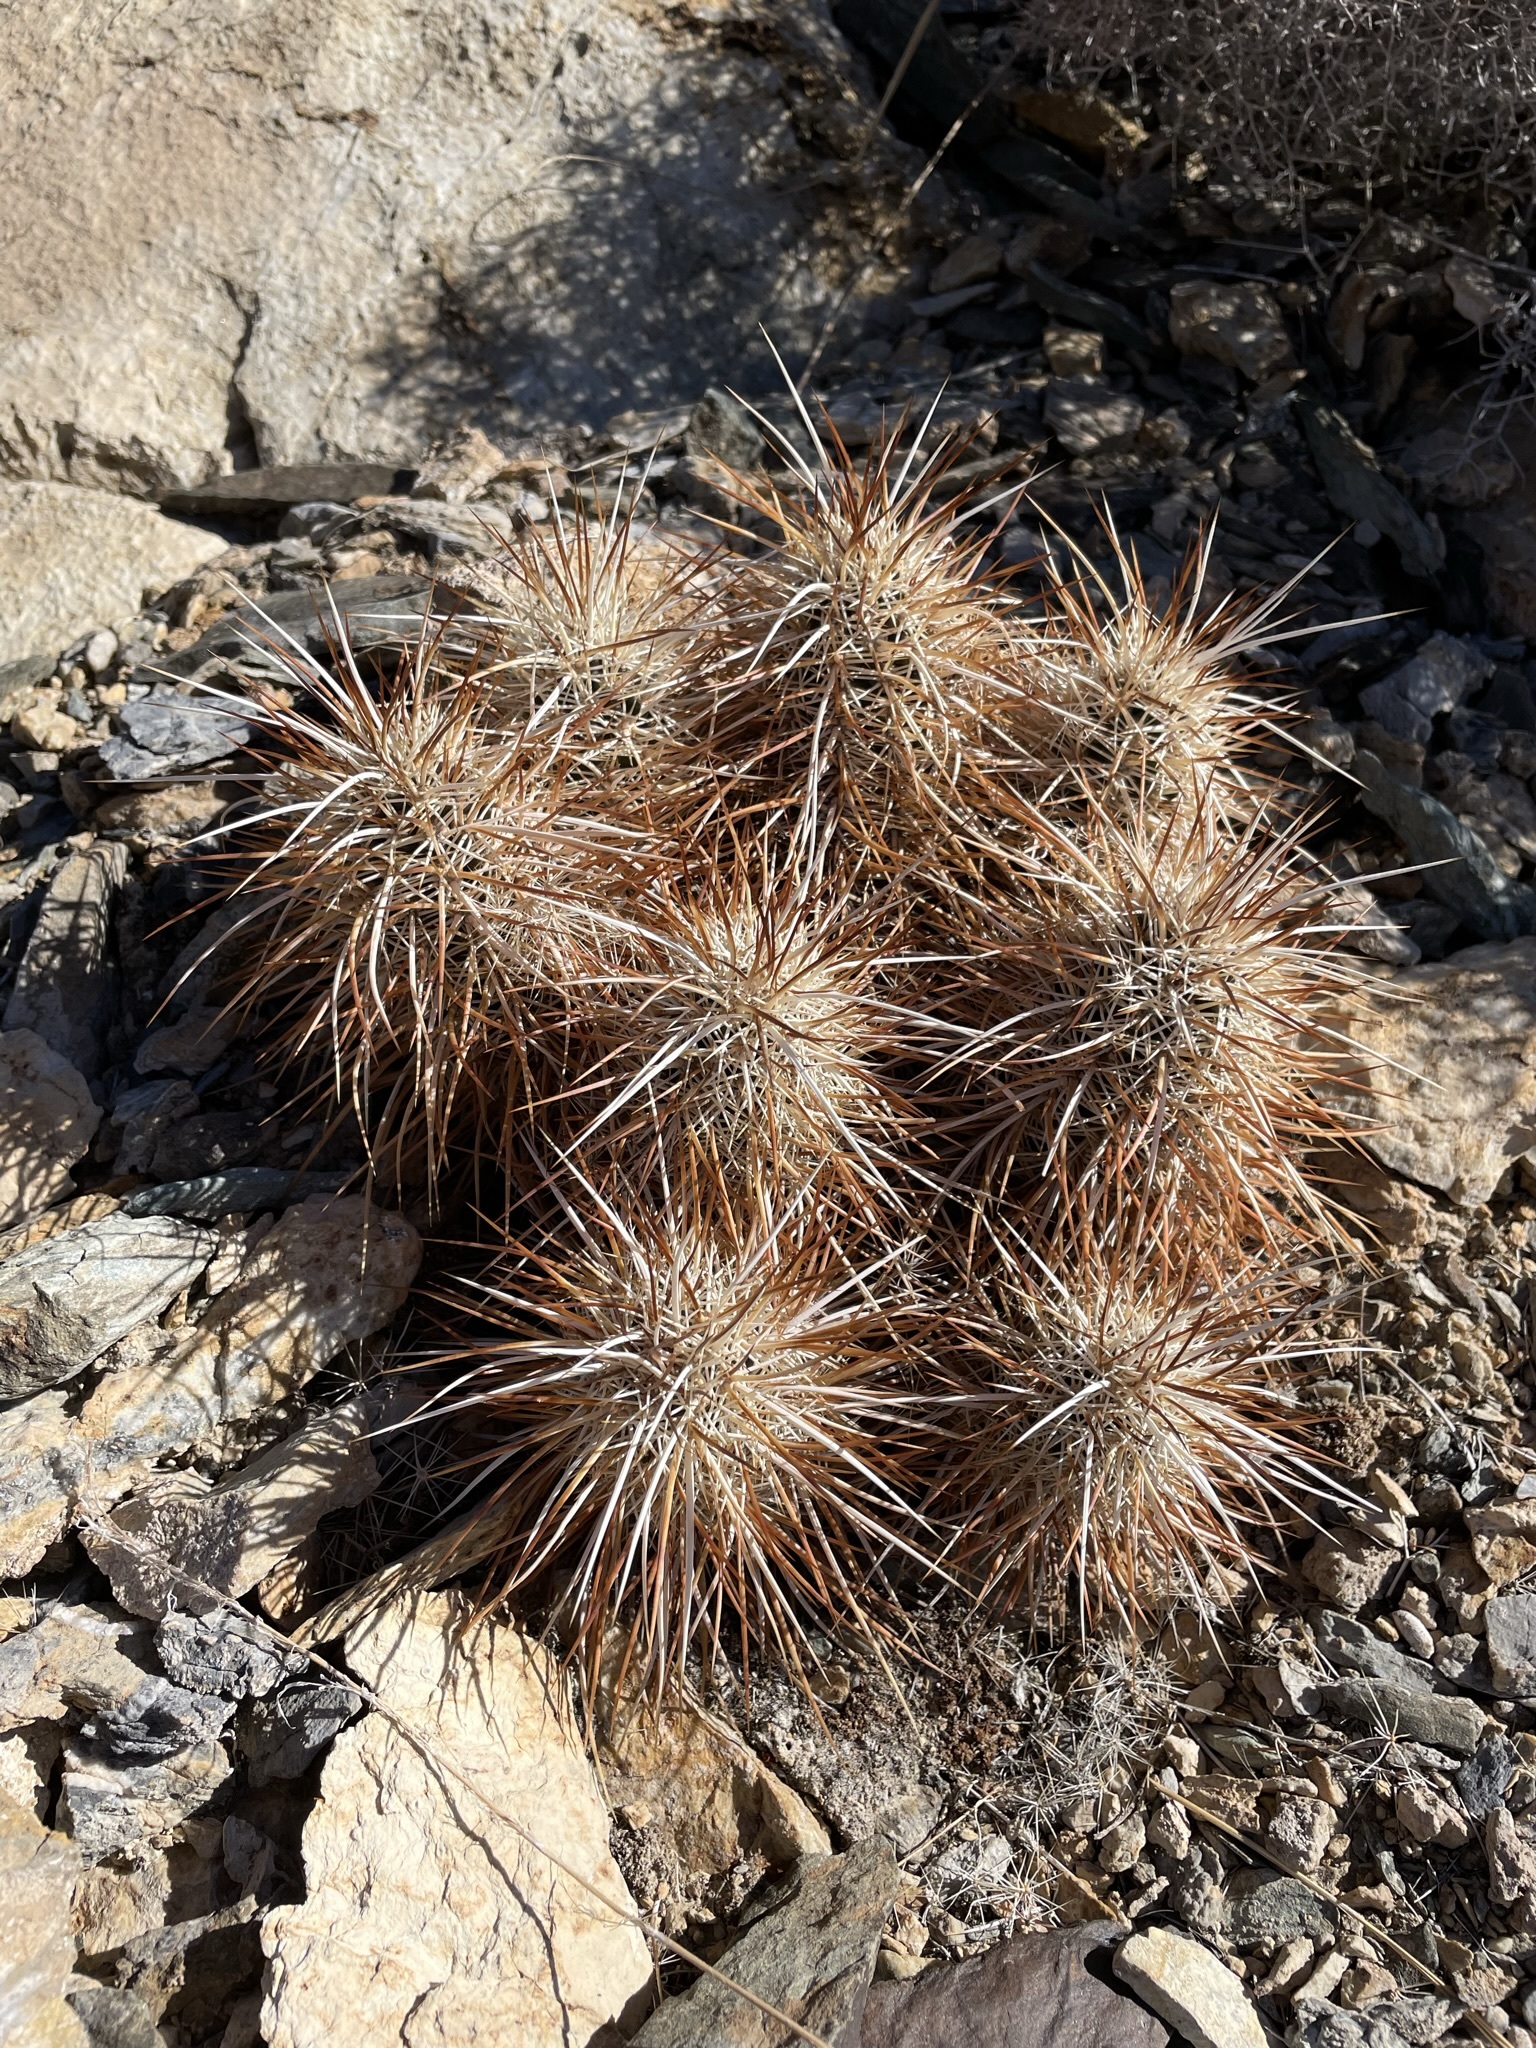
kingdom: Plantae
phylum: Tracheophyta
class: Magnoliopsida
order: Caryophyllales
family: Cactaceae
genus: Echinocereus
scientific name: Echinocereus engelmannii
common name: Engelmann's hedgehog cactus
